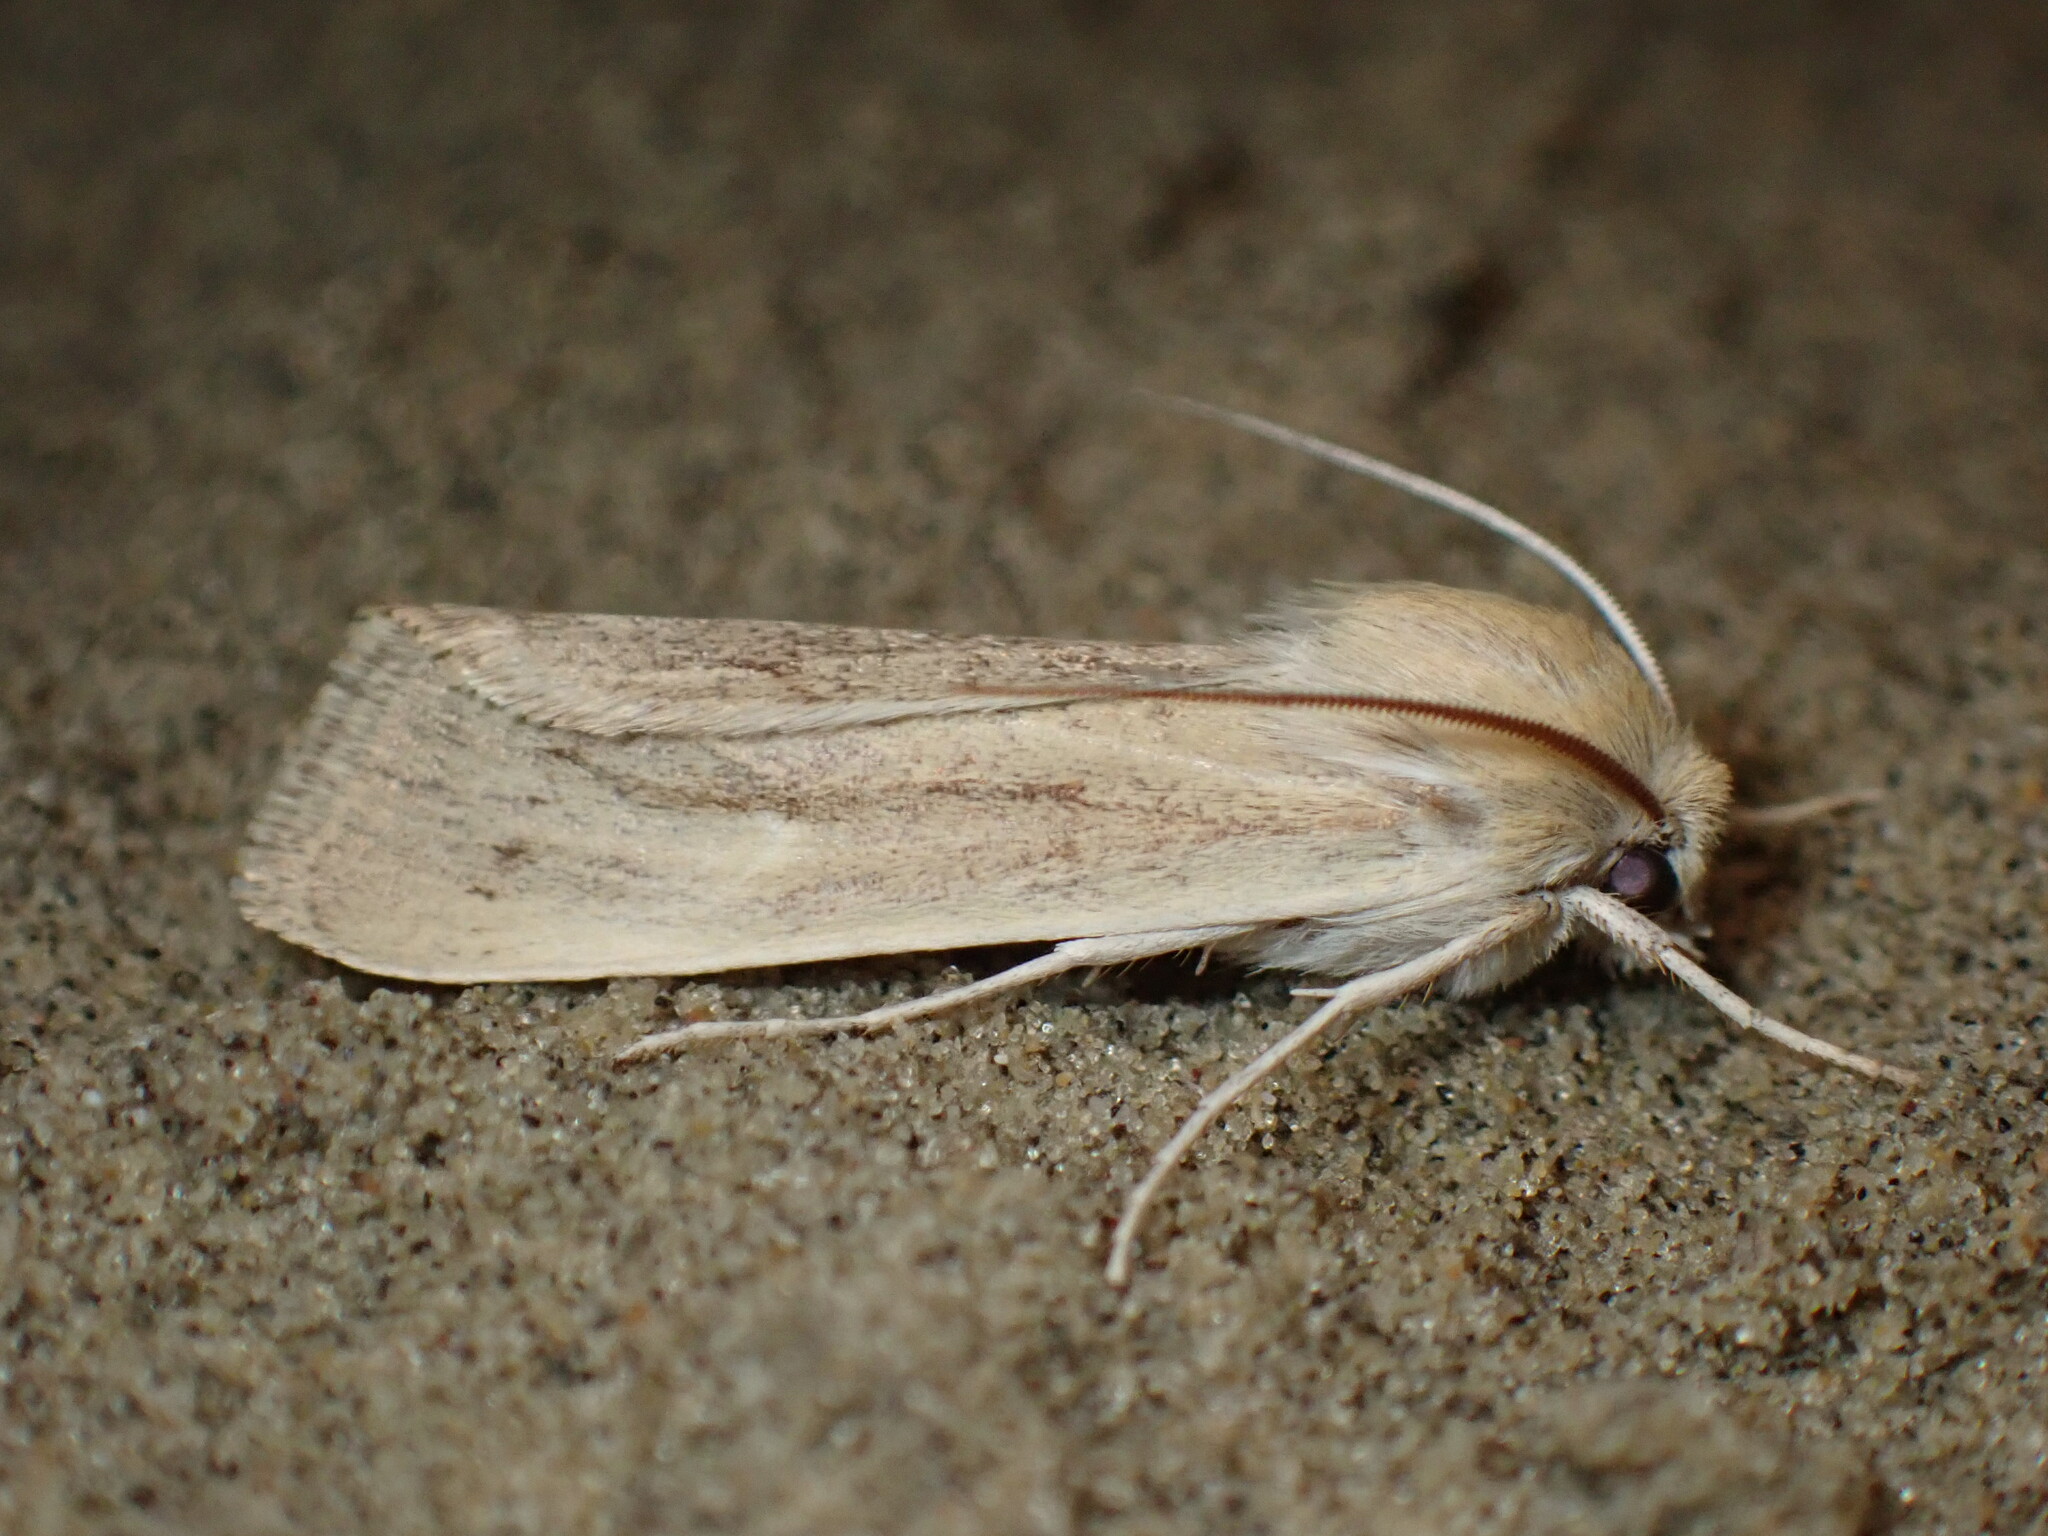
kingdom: Animalia
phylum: Arthropoda
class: Insecta
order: Lepidoptera
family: Noctuidae
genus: Copablepharon
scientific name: Copablepharon longipenne
